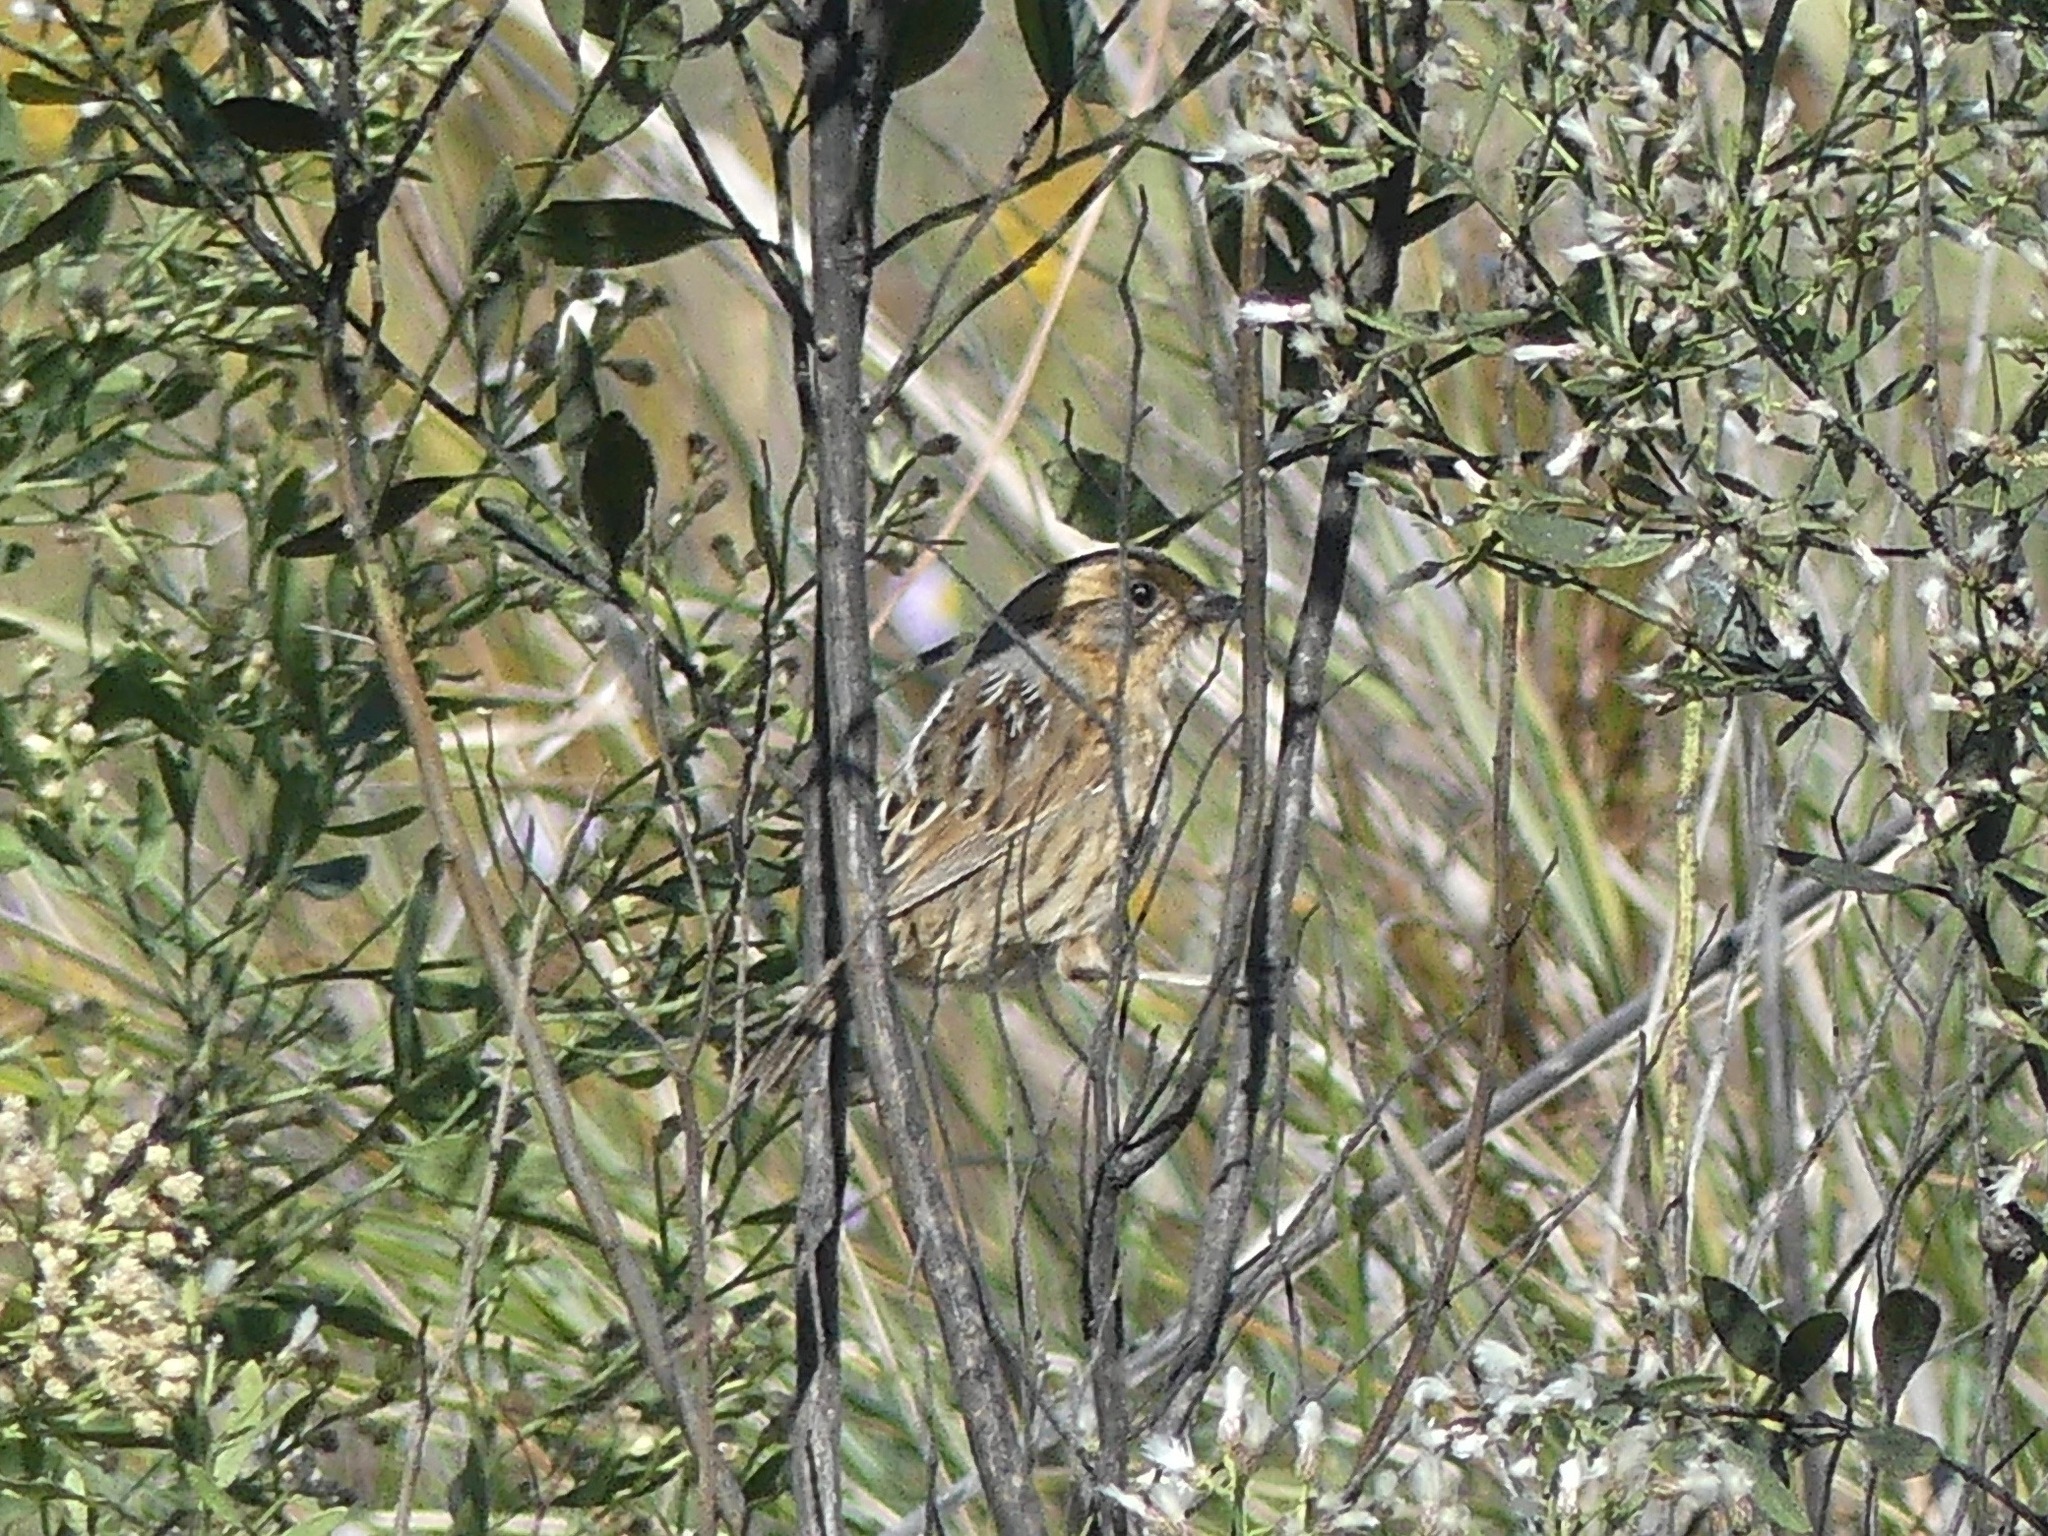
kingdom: Animalia
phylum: Chordata
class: Aves
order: Passeriformes
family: Passerellidae
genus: Ammospiza
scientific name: Ammospiza nelsoni
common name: Nelson's sparrow
